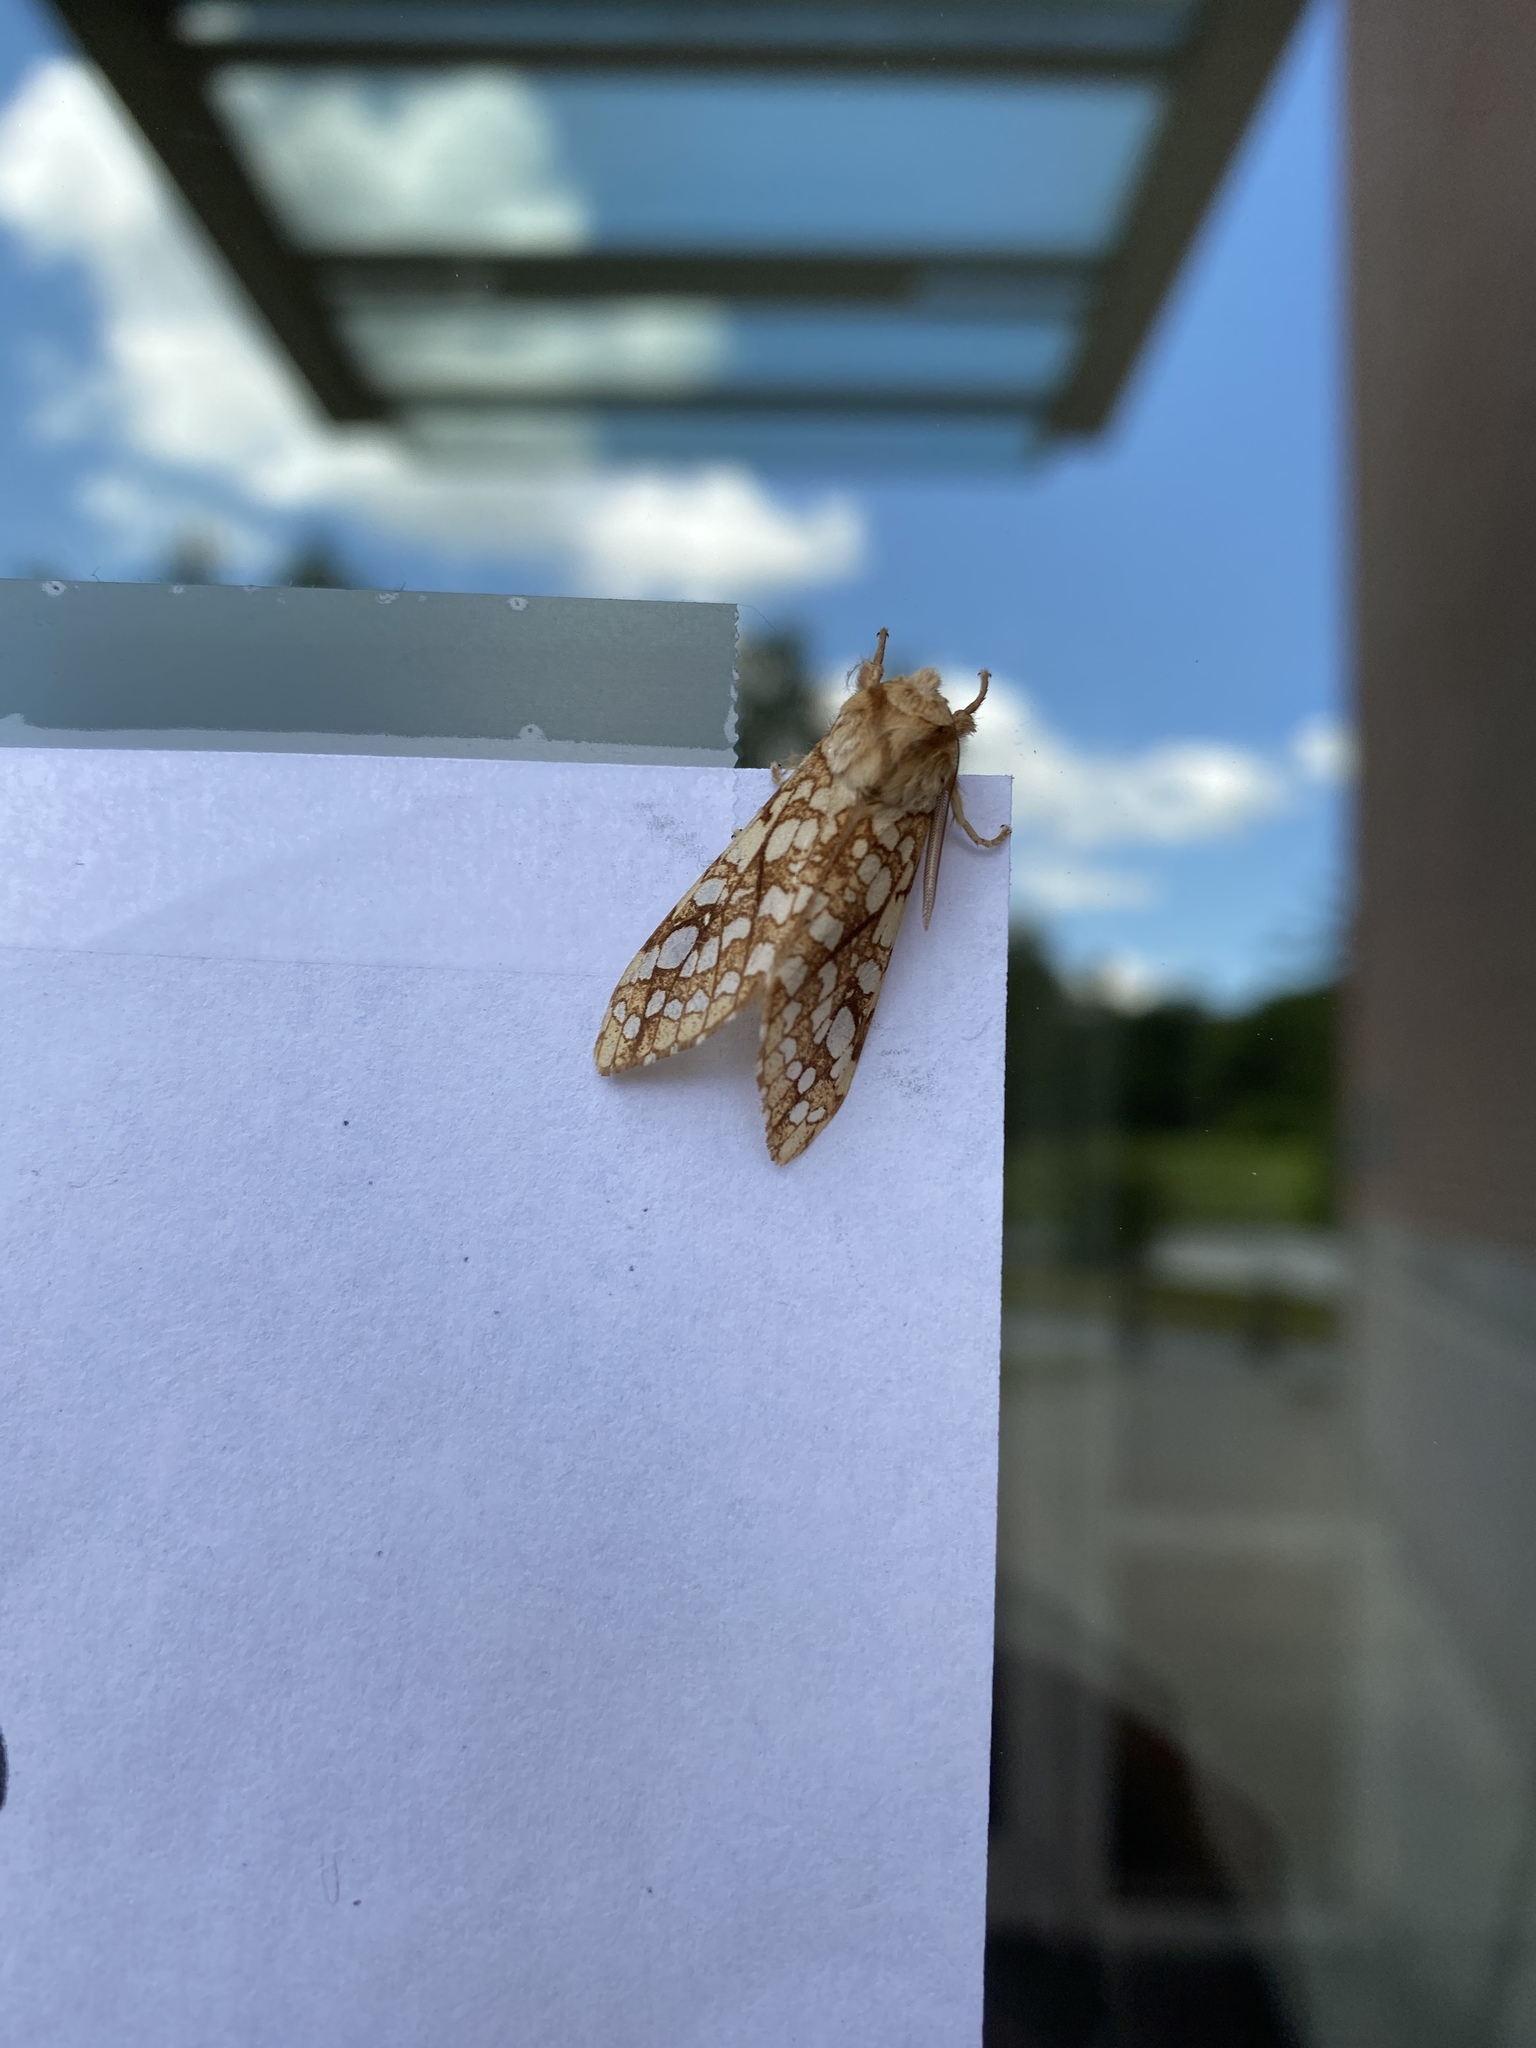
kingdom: Animalia
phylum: Arthropoda
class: Insecta
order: Lepidoptera
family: Erebidae
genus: Lophocampa
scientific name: Lophocampa caryae
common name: Hickory tussock moth
